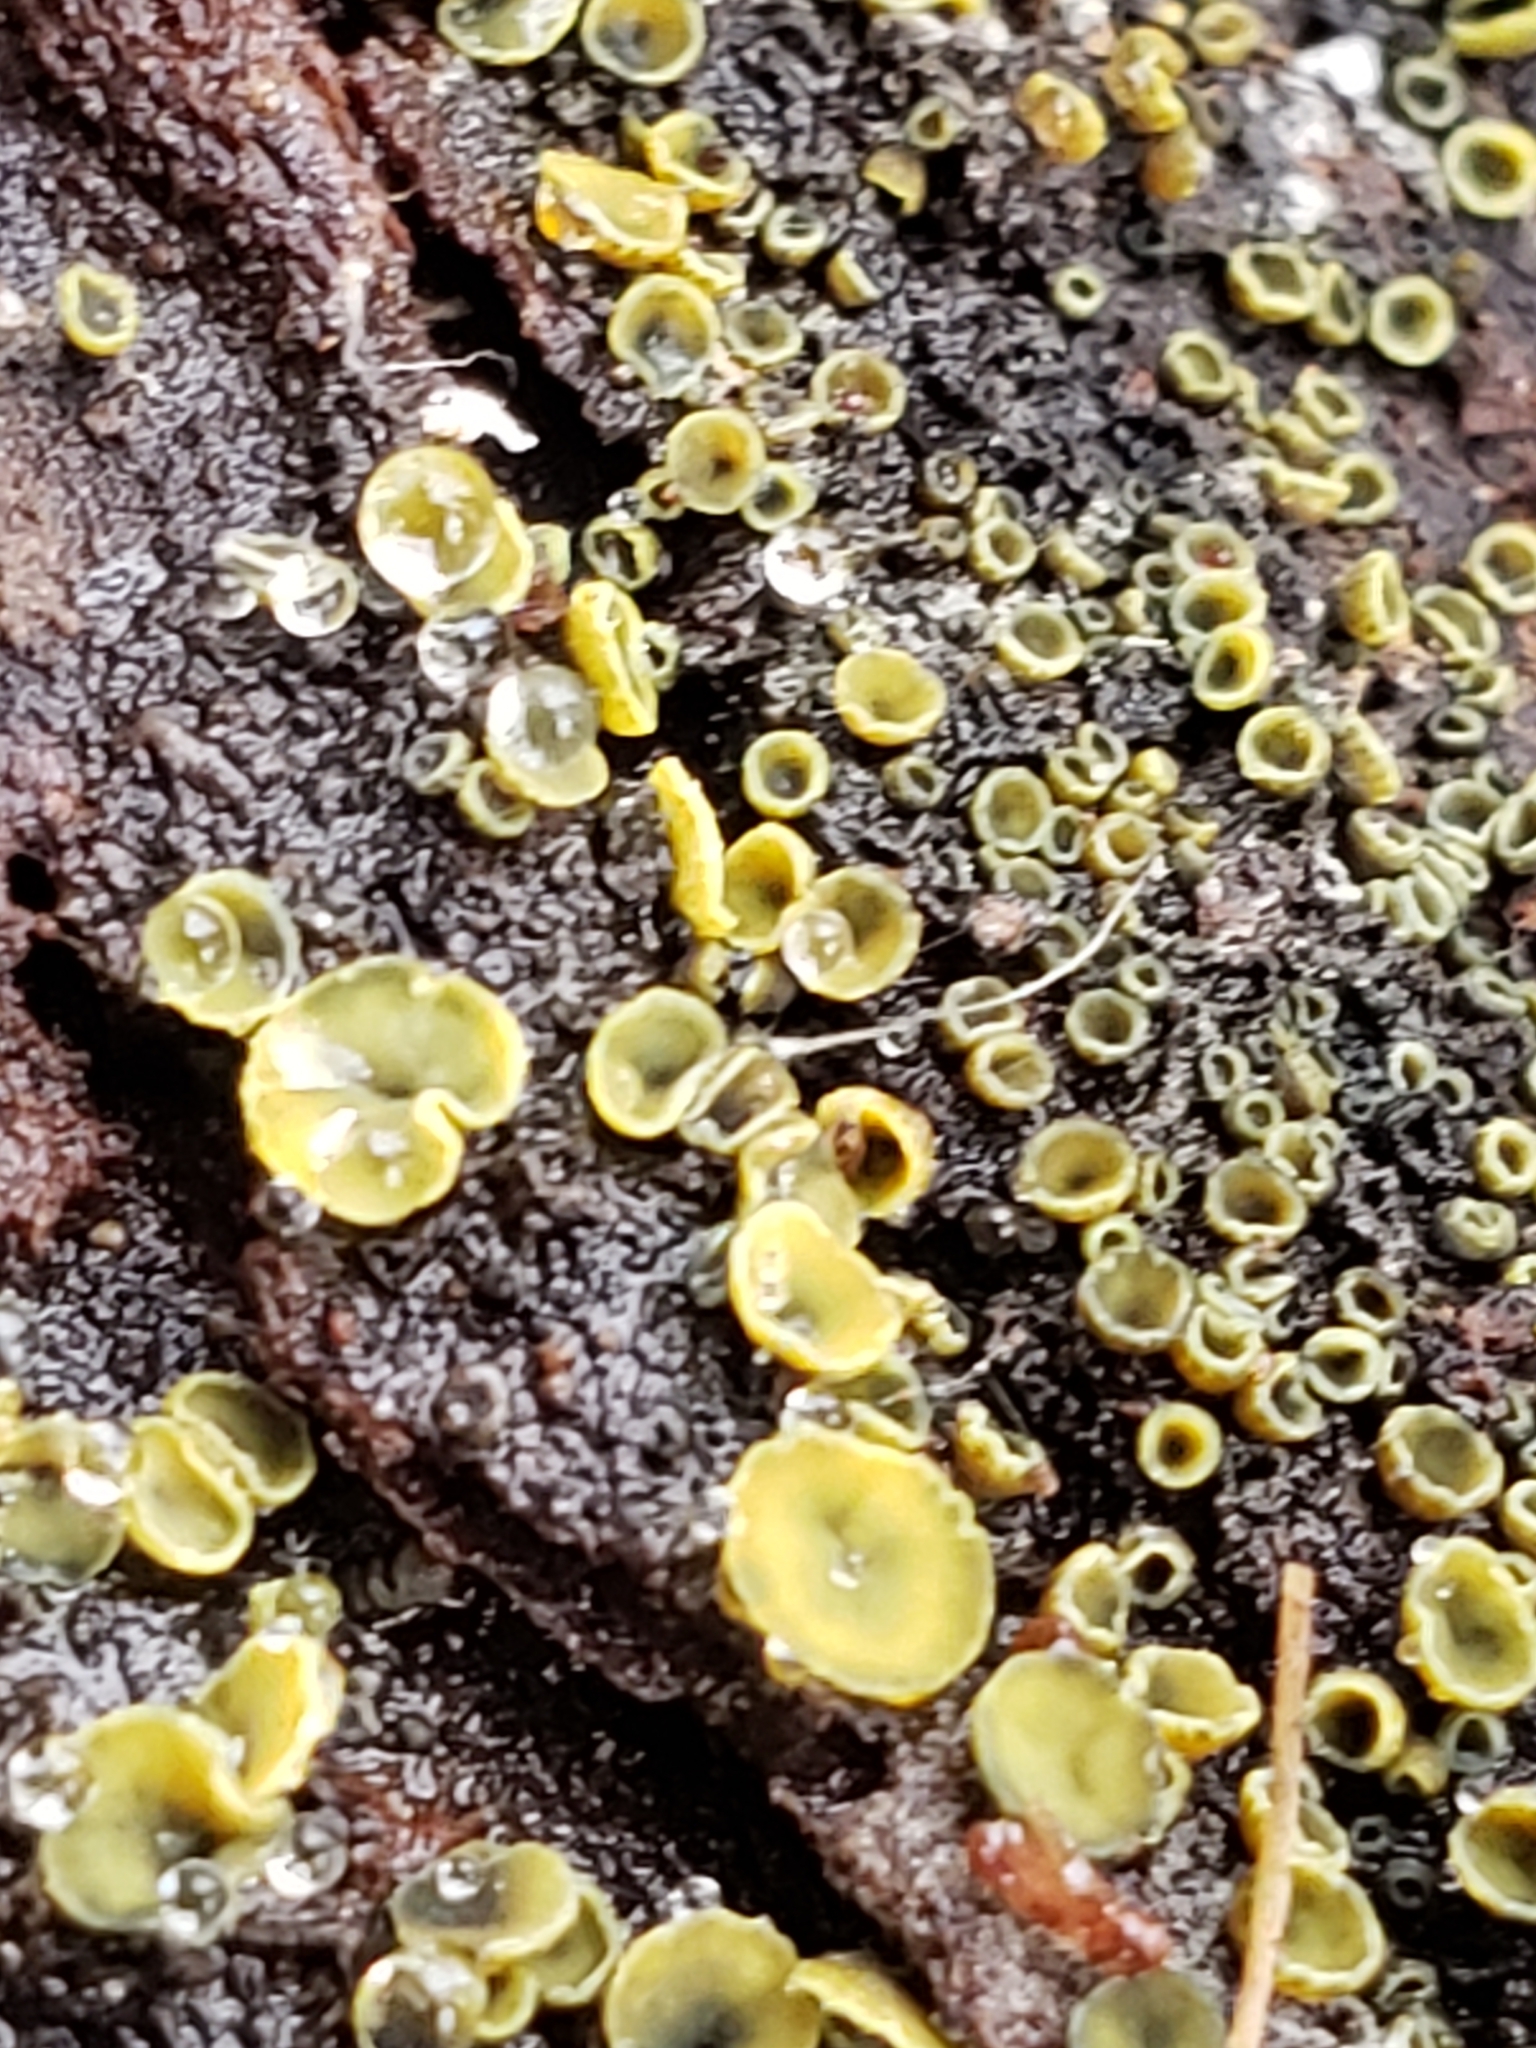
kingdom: Fungi
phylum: Ascomycota
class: Leotiomycetes
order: Helotiales
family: Chlorospleniaceae
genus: Chlorosplenium
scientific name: Chlorosplenium chlora
